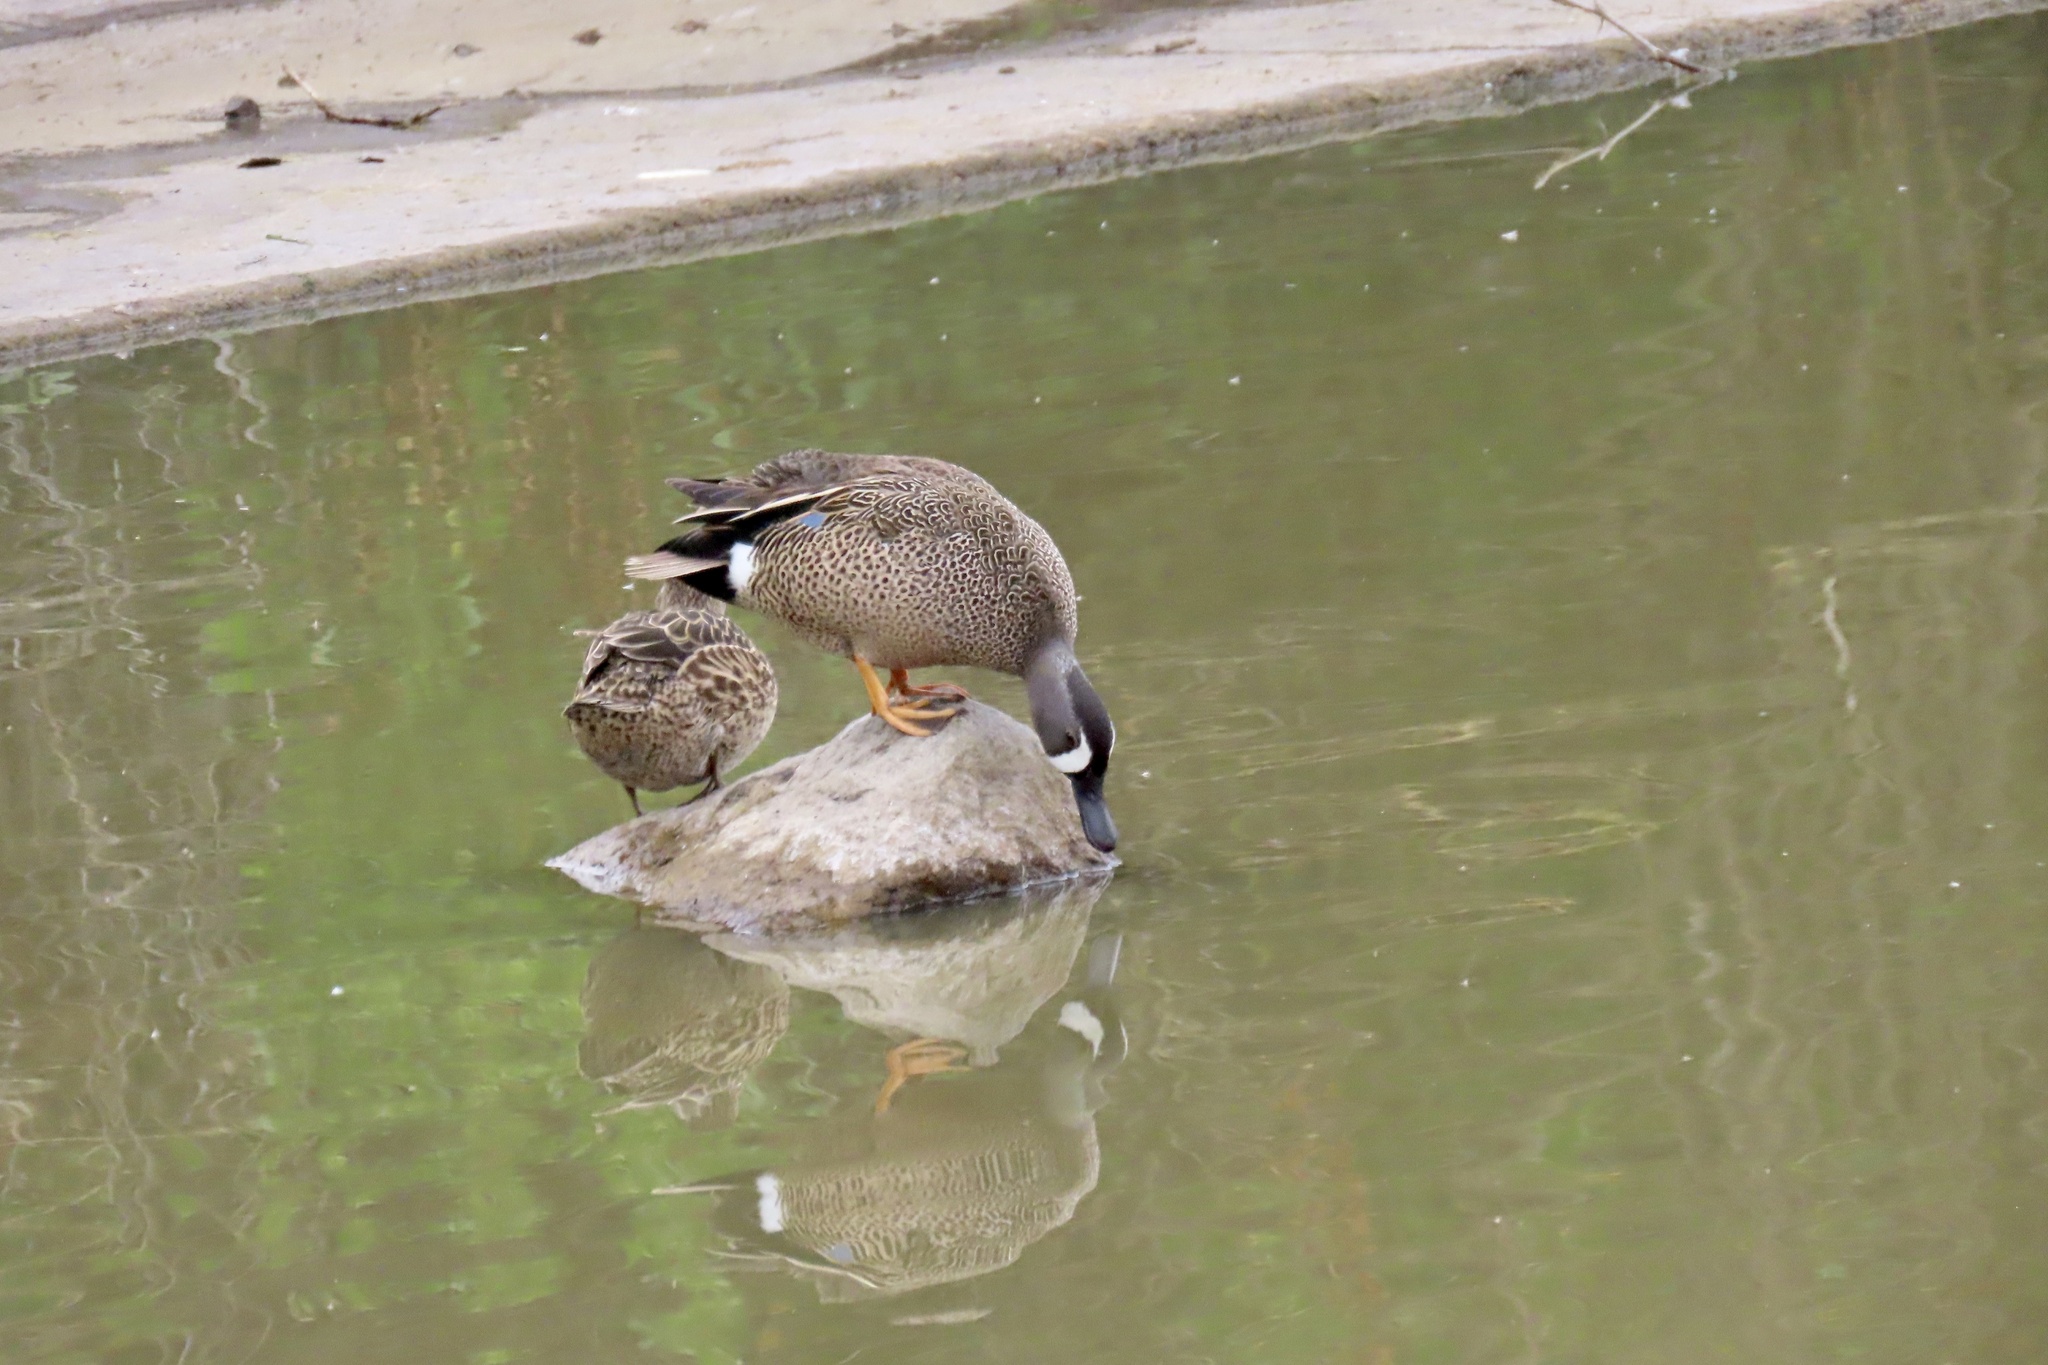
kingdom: Animalia
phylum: Chordata
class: Aves
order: Anseriformes
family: Anatidae
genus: Spatula
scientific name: Spatula discors
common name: Blue-winged teal
